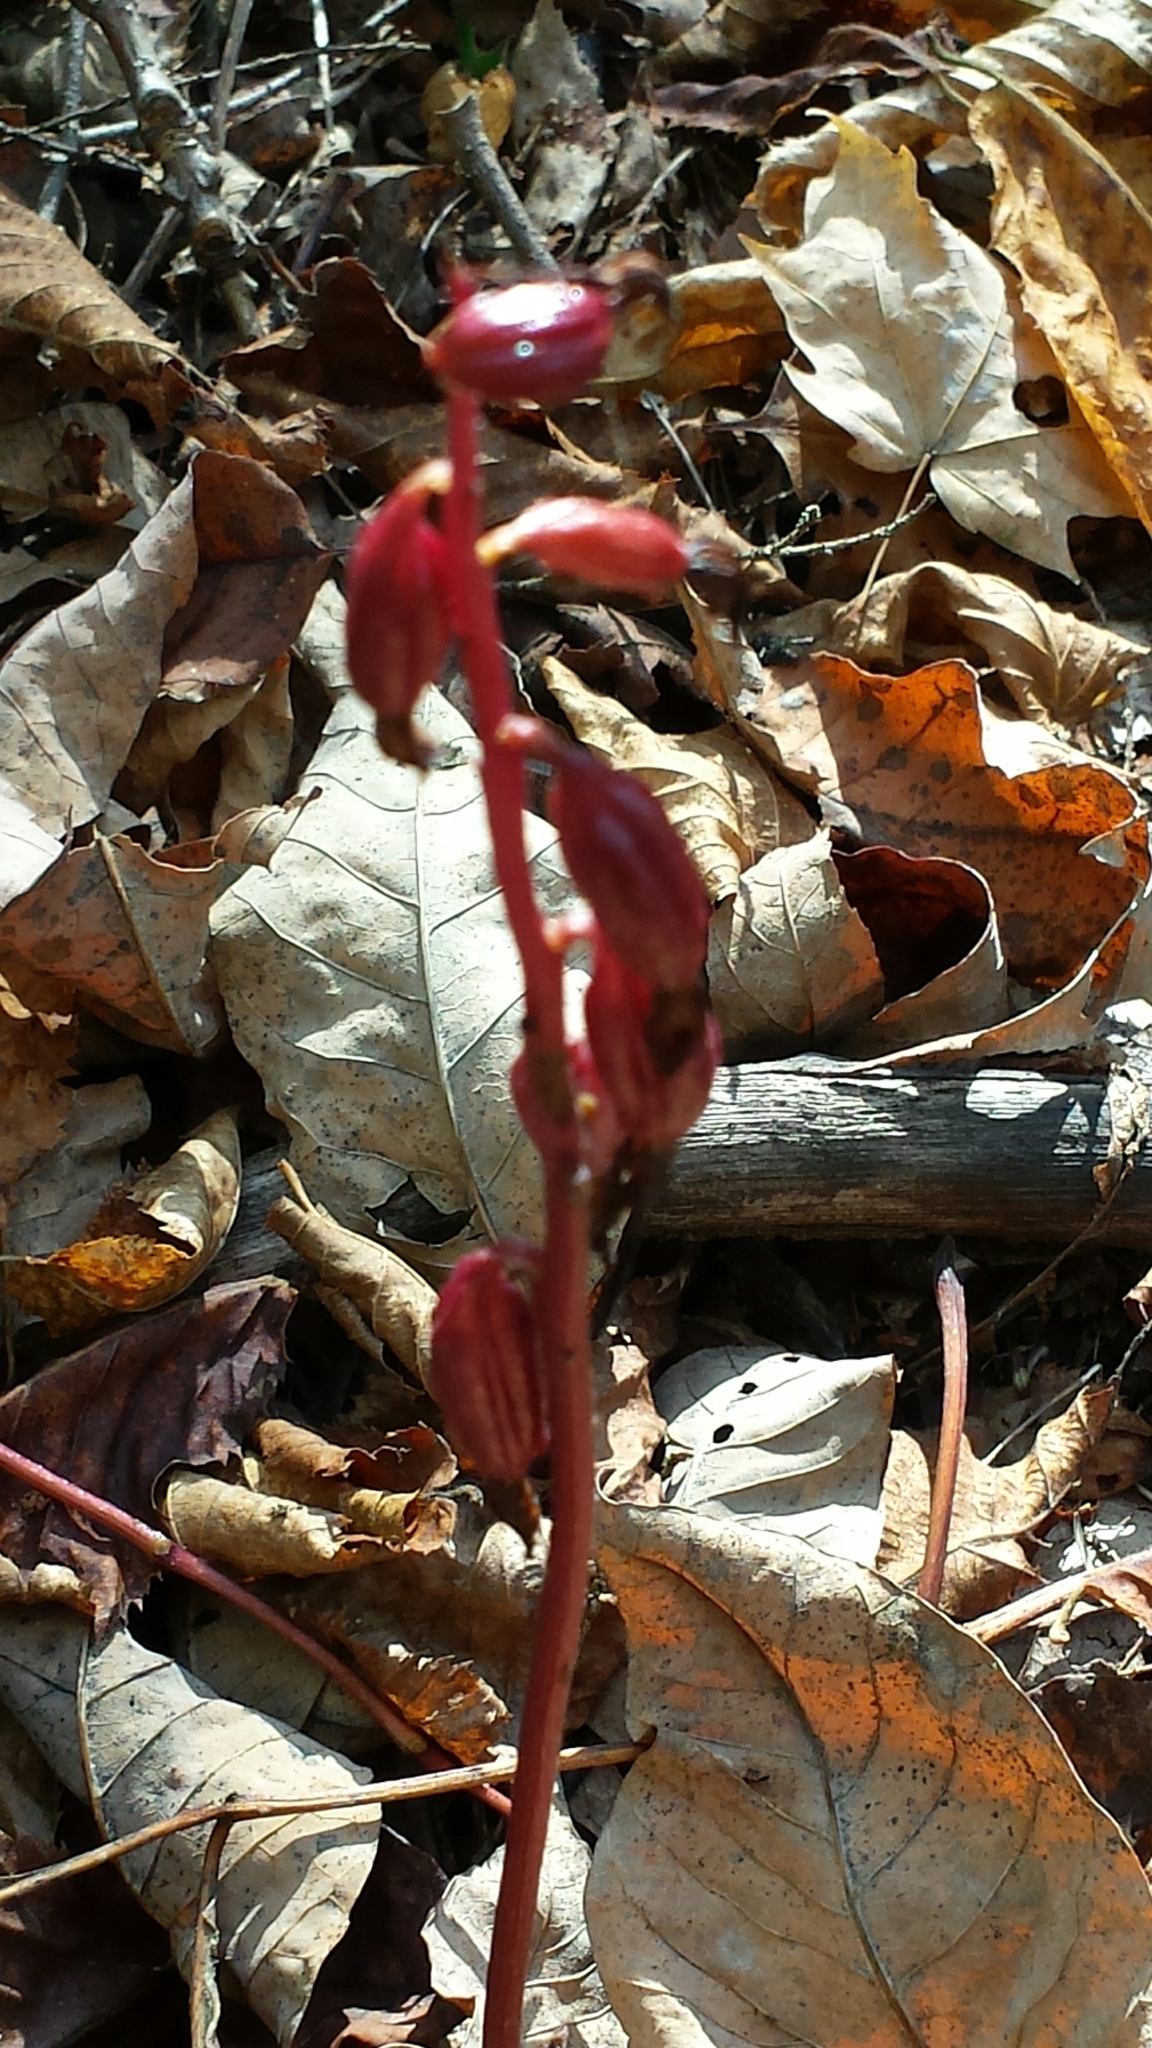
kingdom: Plantae
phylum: Tracheophyta
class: Liliopsida
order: Asparagales
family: Orchidaceae
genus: Corallorhiza
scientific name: Corallorhiza maculata
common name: Spotted coralroot
